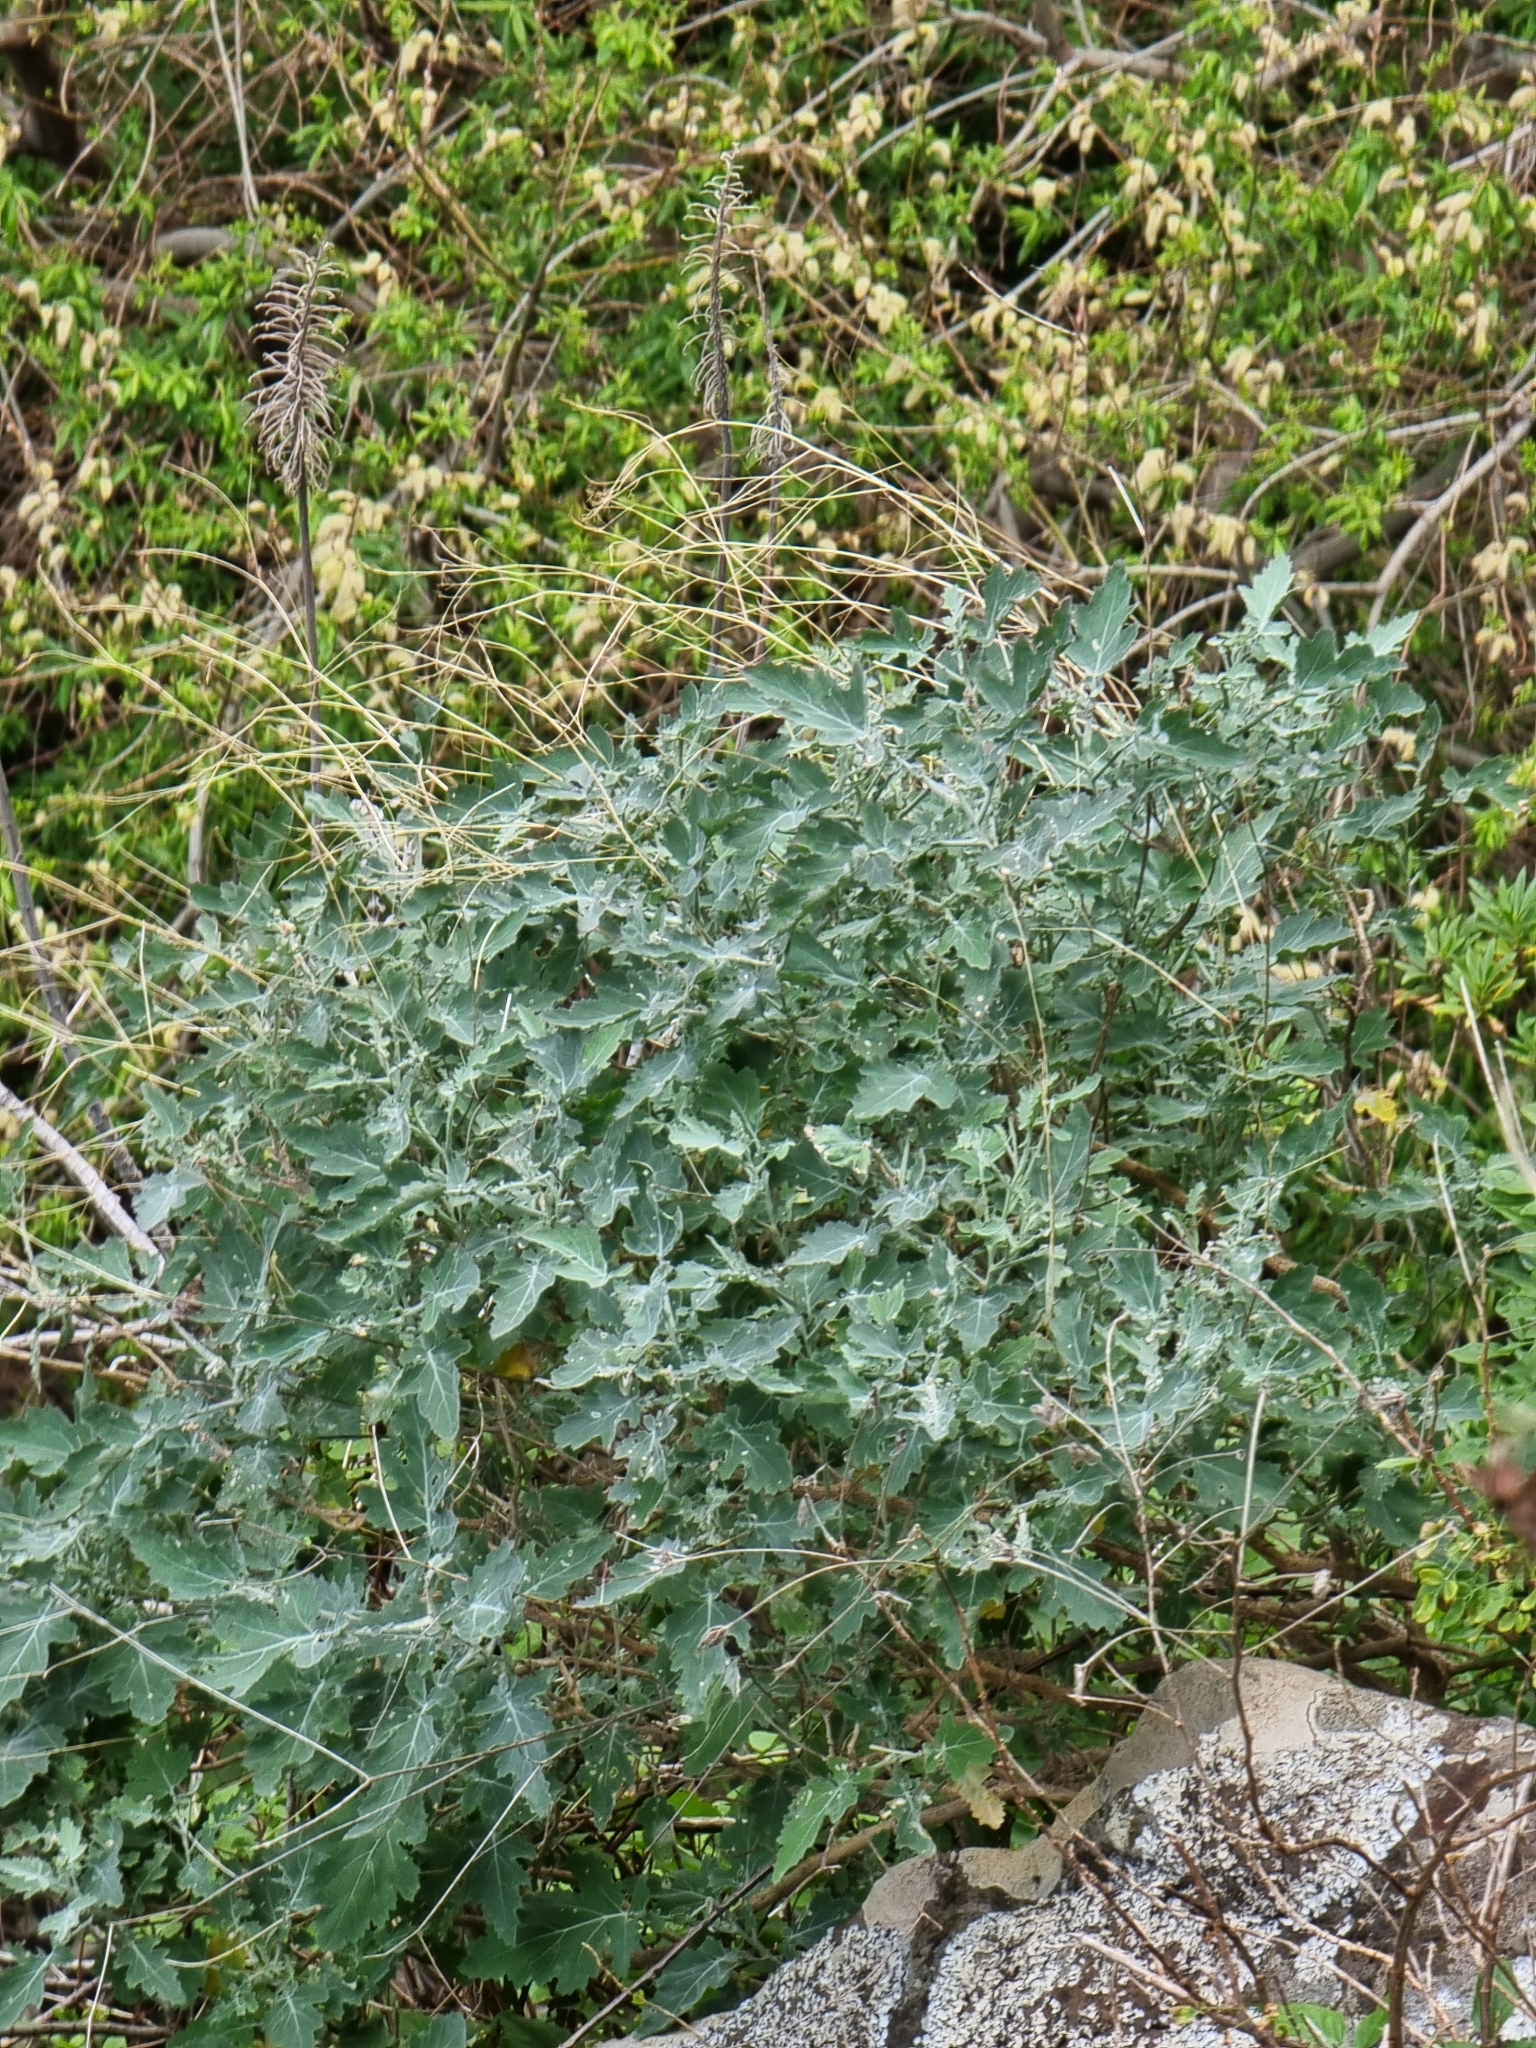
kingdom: Plantae
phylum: Tracheophyta
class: Magnoliopsida
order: Brassicales
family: Brassicaceae
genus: Crambe
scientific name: Crambe fruticosa
